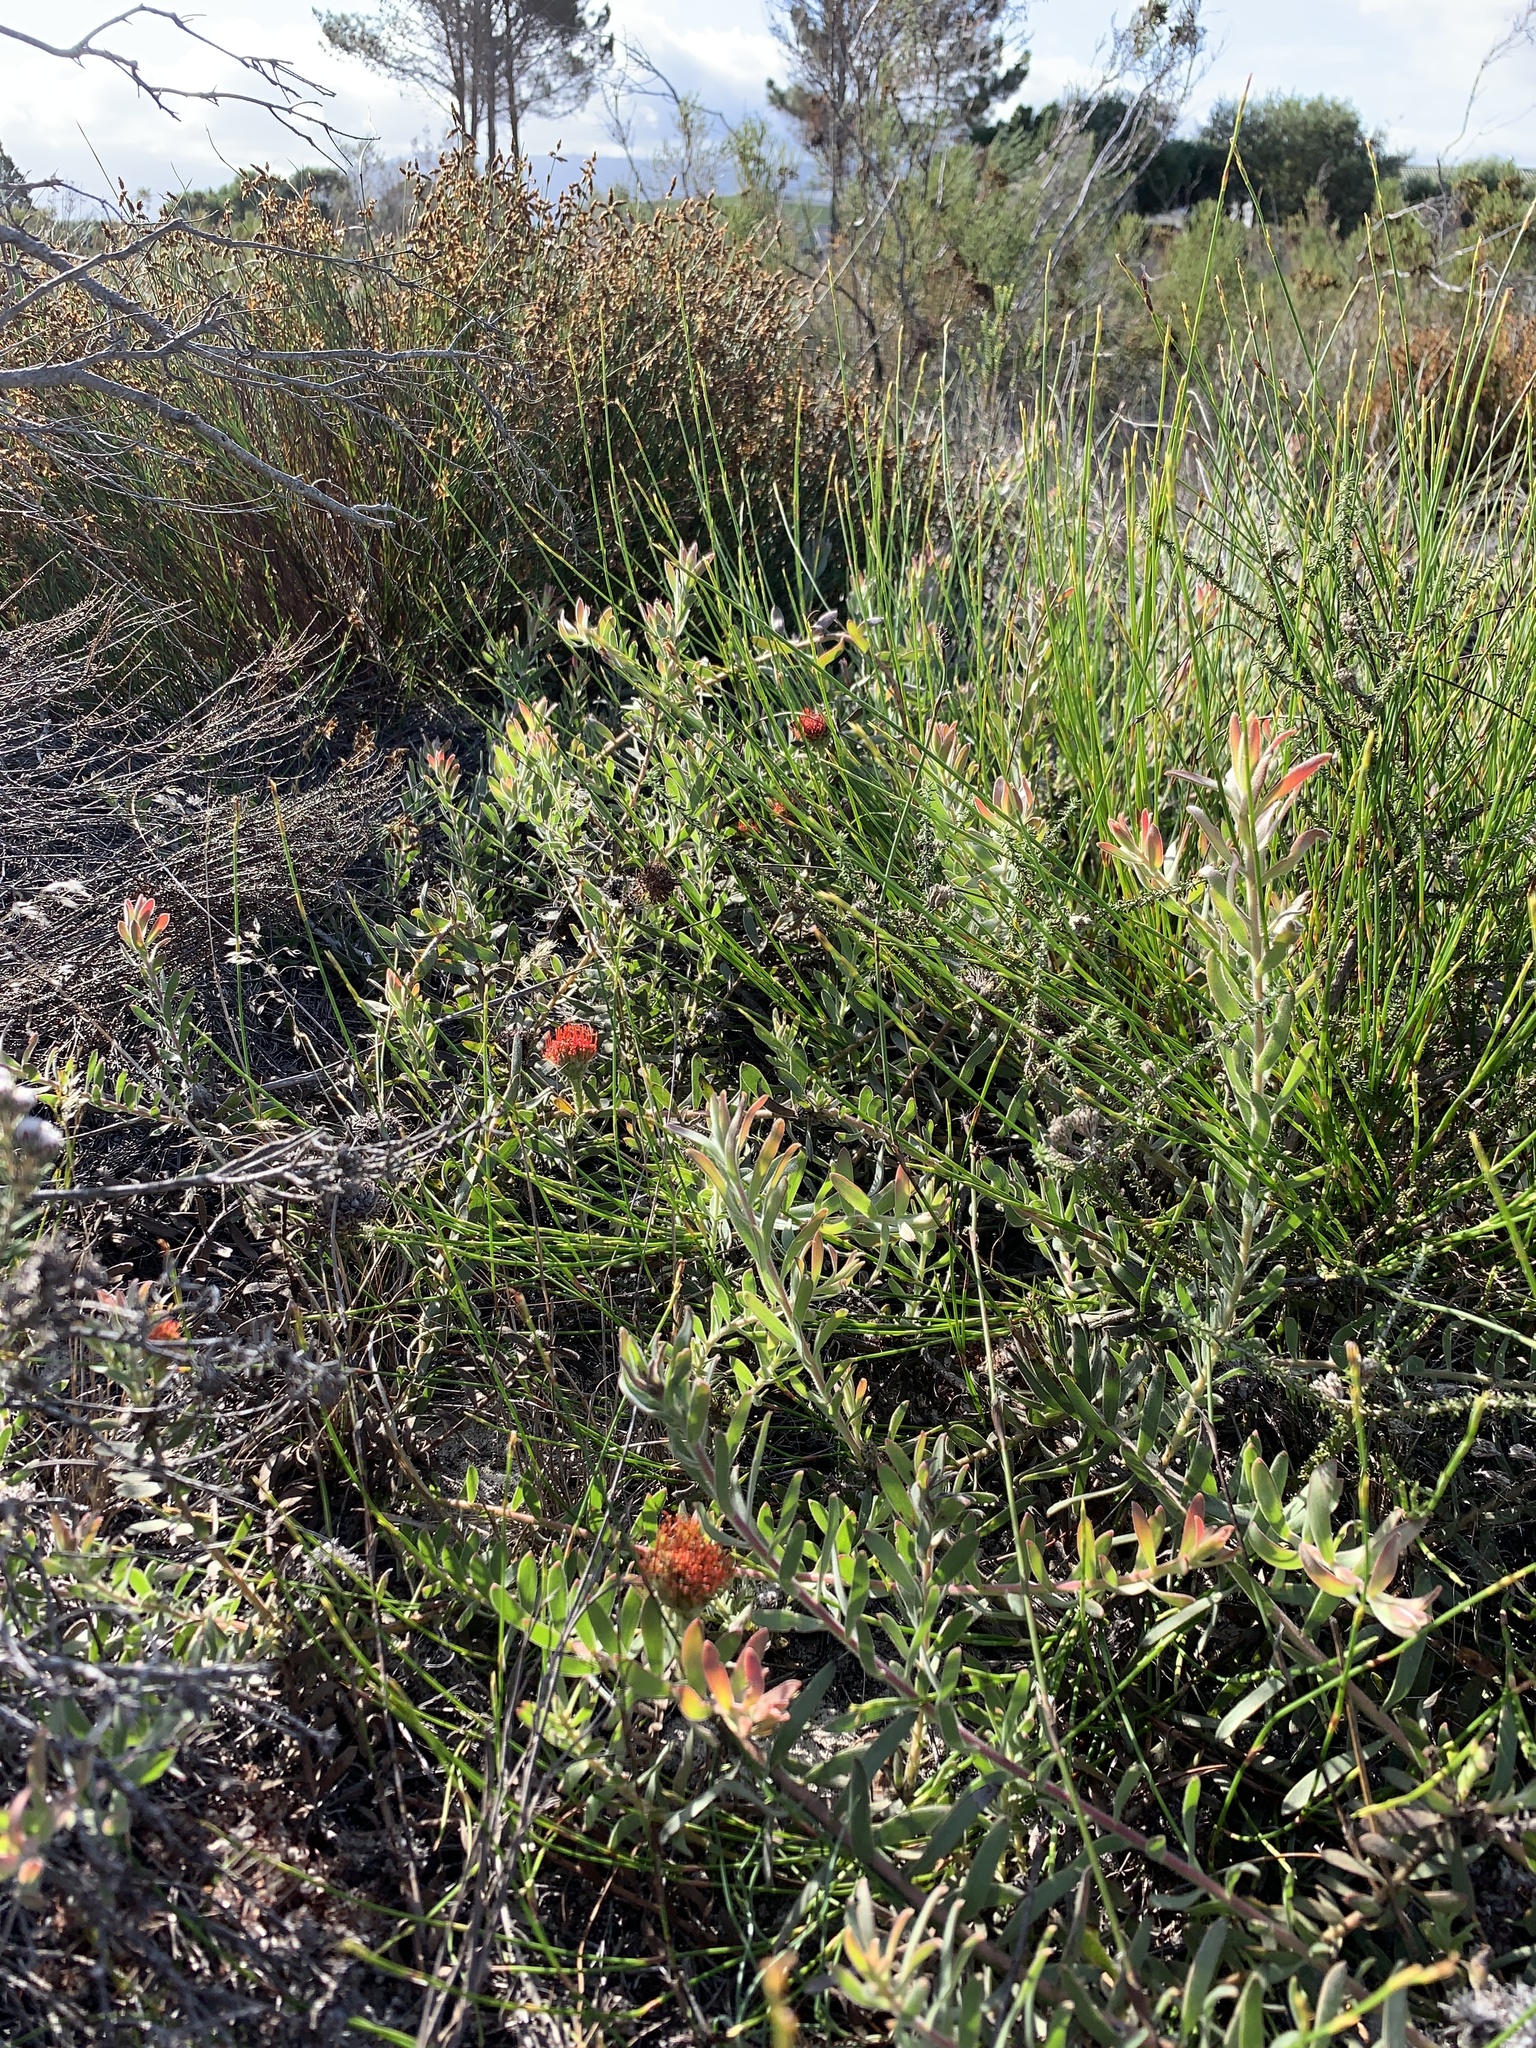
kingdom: Plantae
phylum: Tracheophyta
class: Magnoliopsida
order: Proteales
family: Proteaceae
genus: Leucospermum
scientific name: Leucospermum prostratum
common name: Yellow-trailing pincushion
